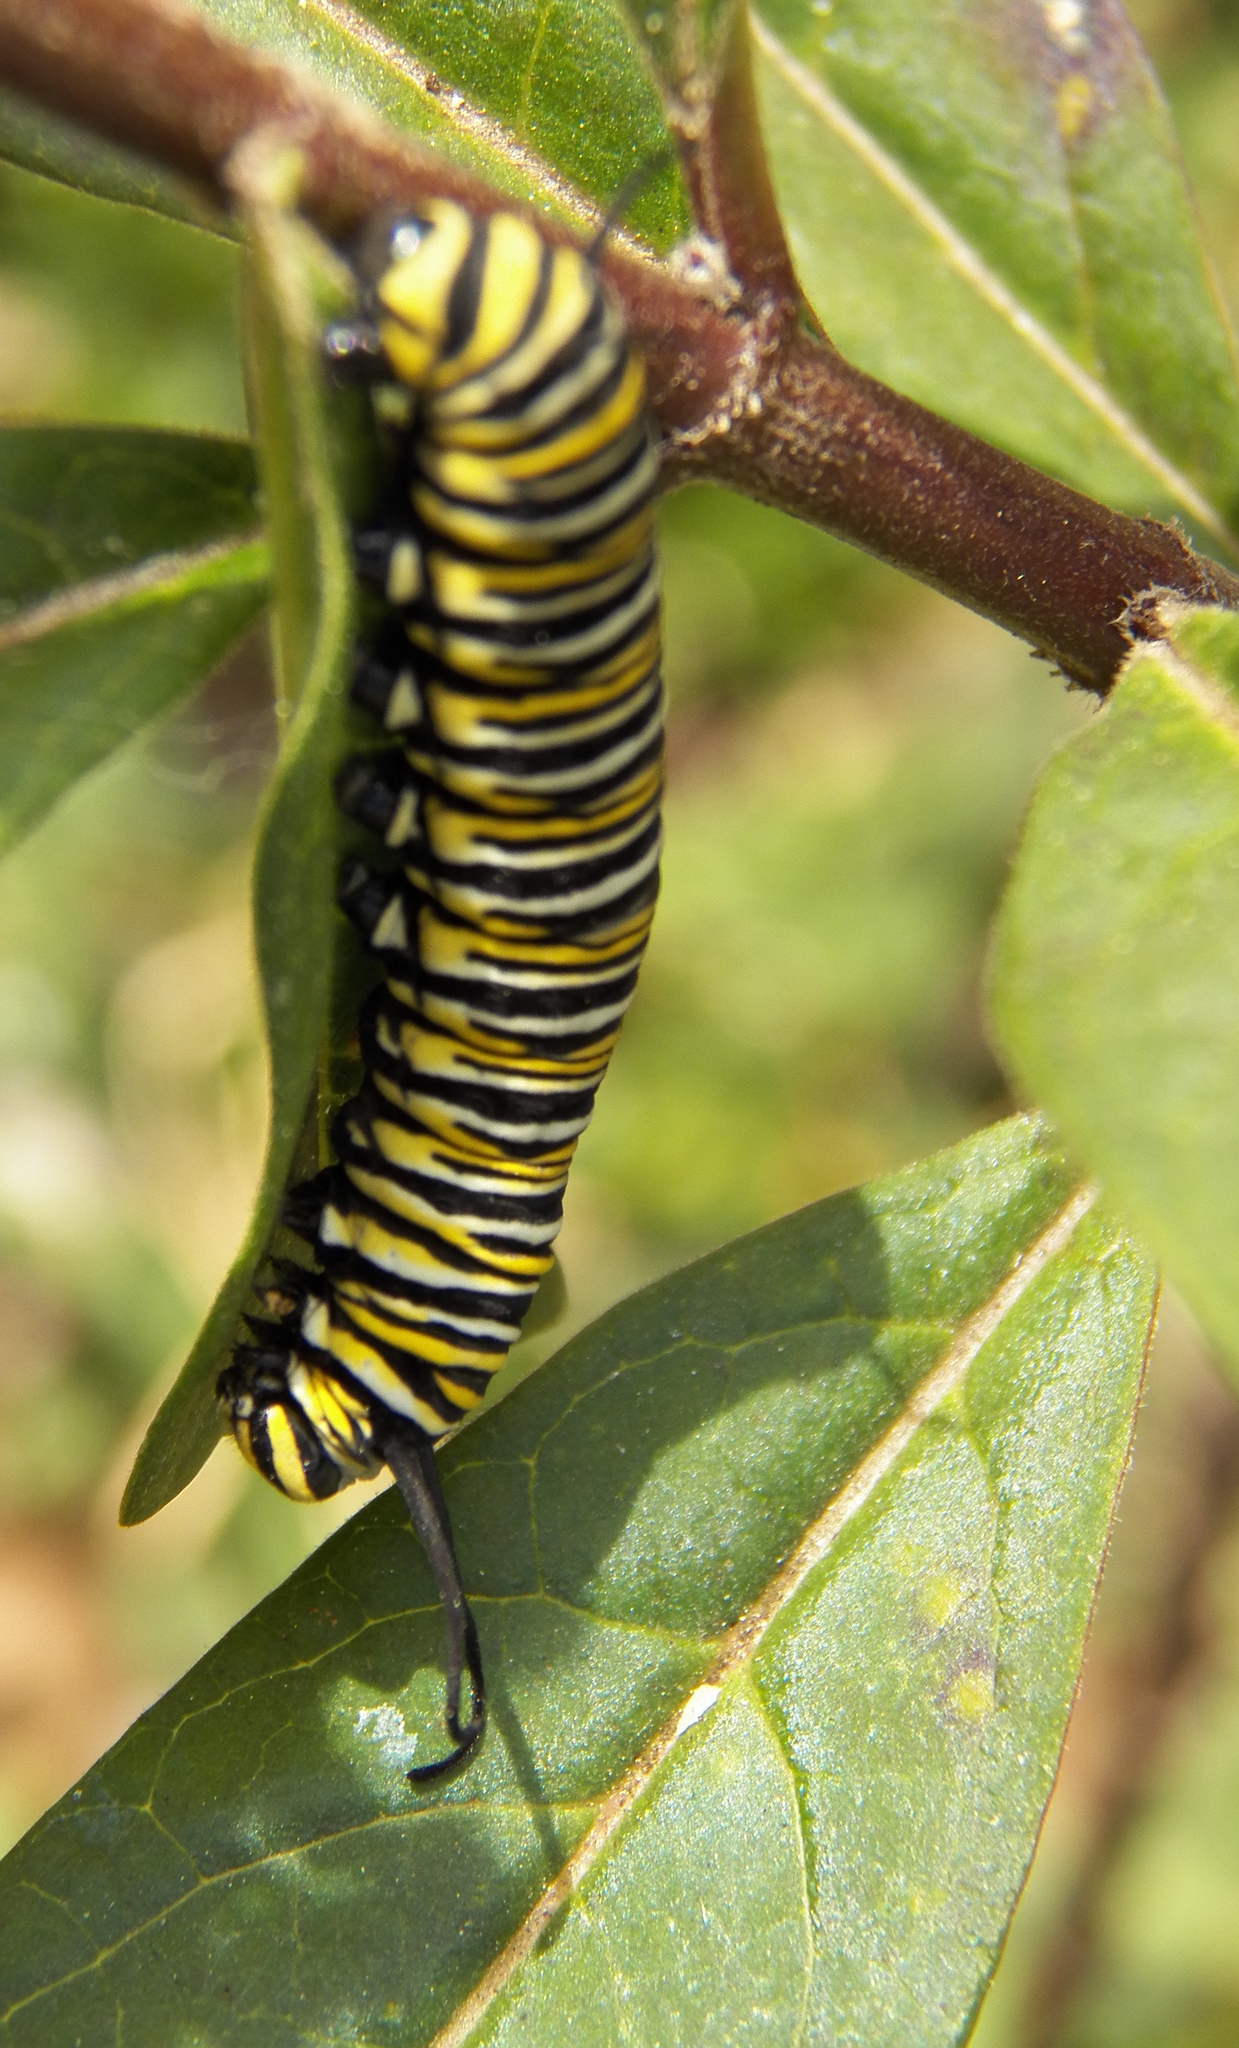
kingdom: Animalia
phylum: Arthropoda
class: Insecta
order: Lepidoptera
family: Nymphalidae
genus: Danaus
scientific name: Danaus plexippus
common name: Monarch
